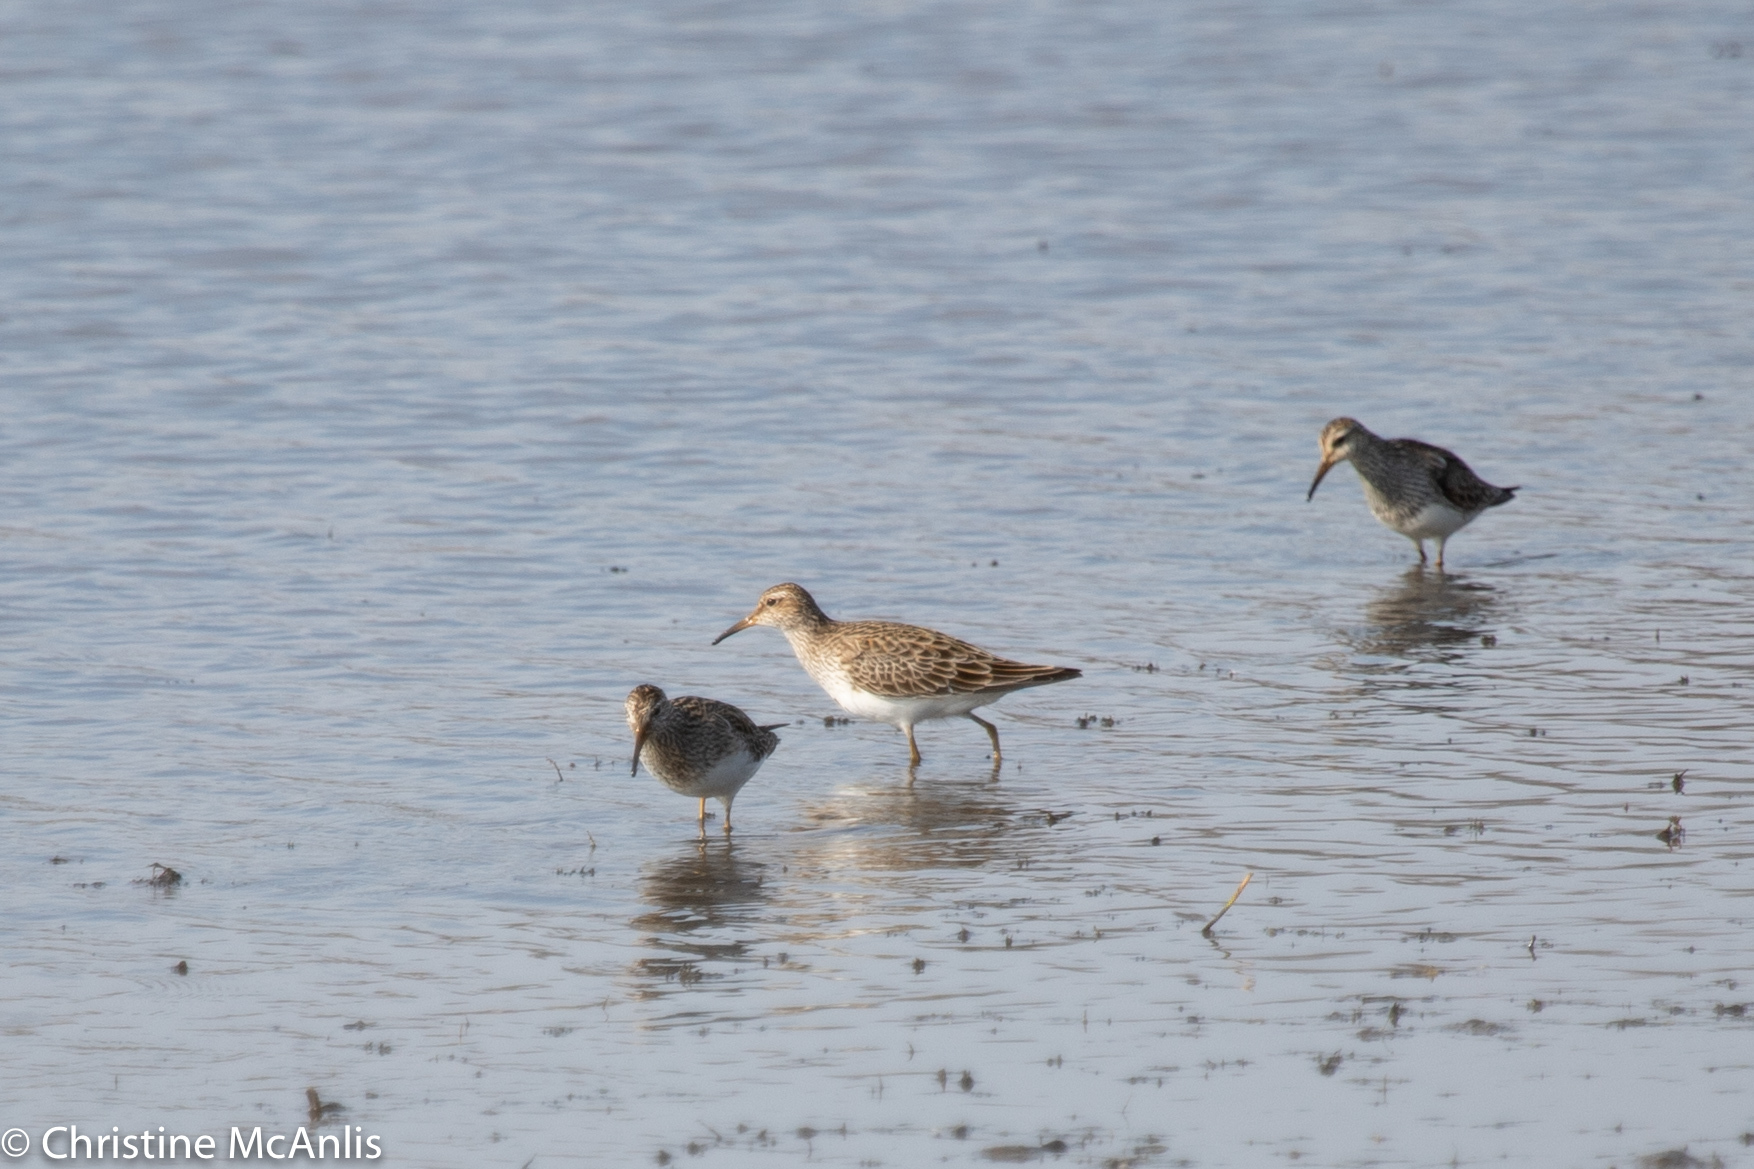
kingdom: Animalia
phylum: Chordata
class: Aves
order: Charadriiformes
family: Scolopacidae
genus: Calidris
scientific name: Calidris melanotos
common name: Pectoral sandpiper
